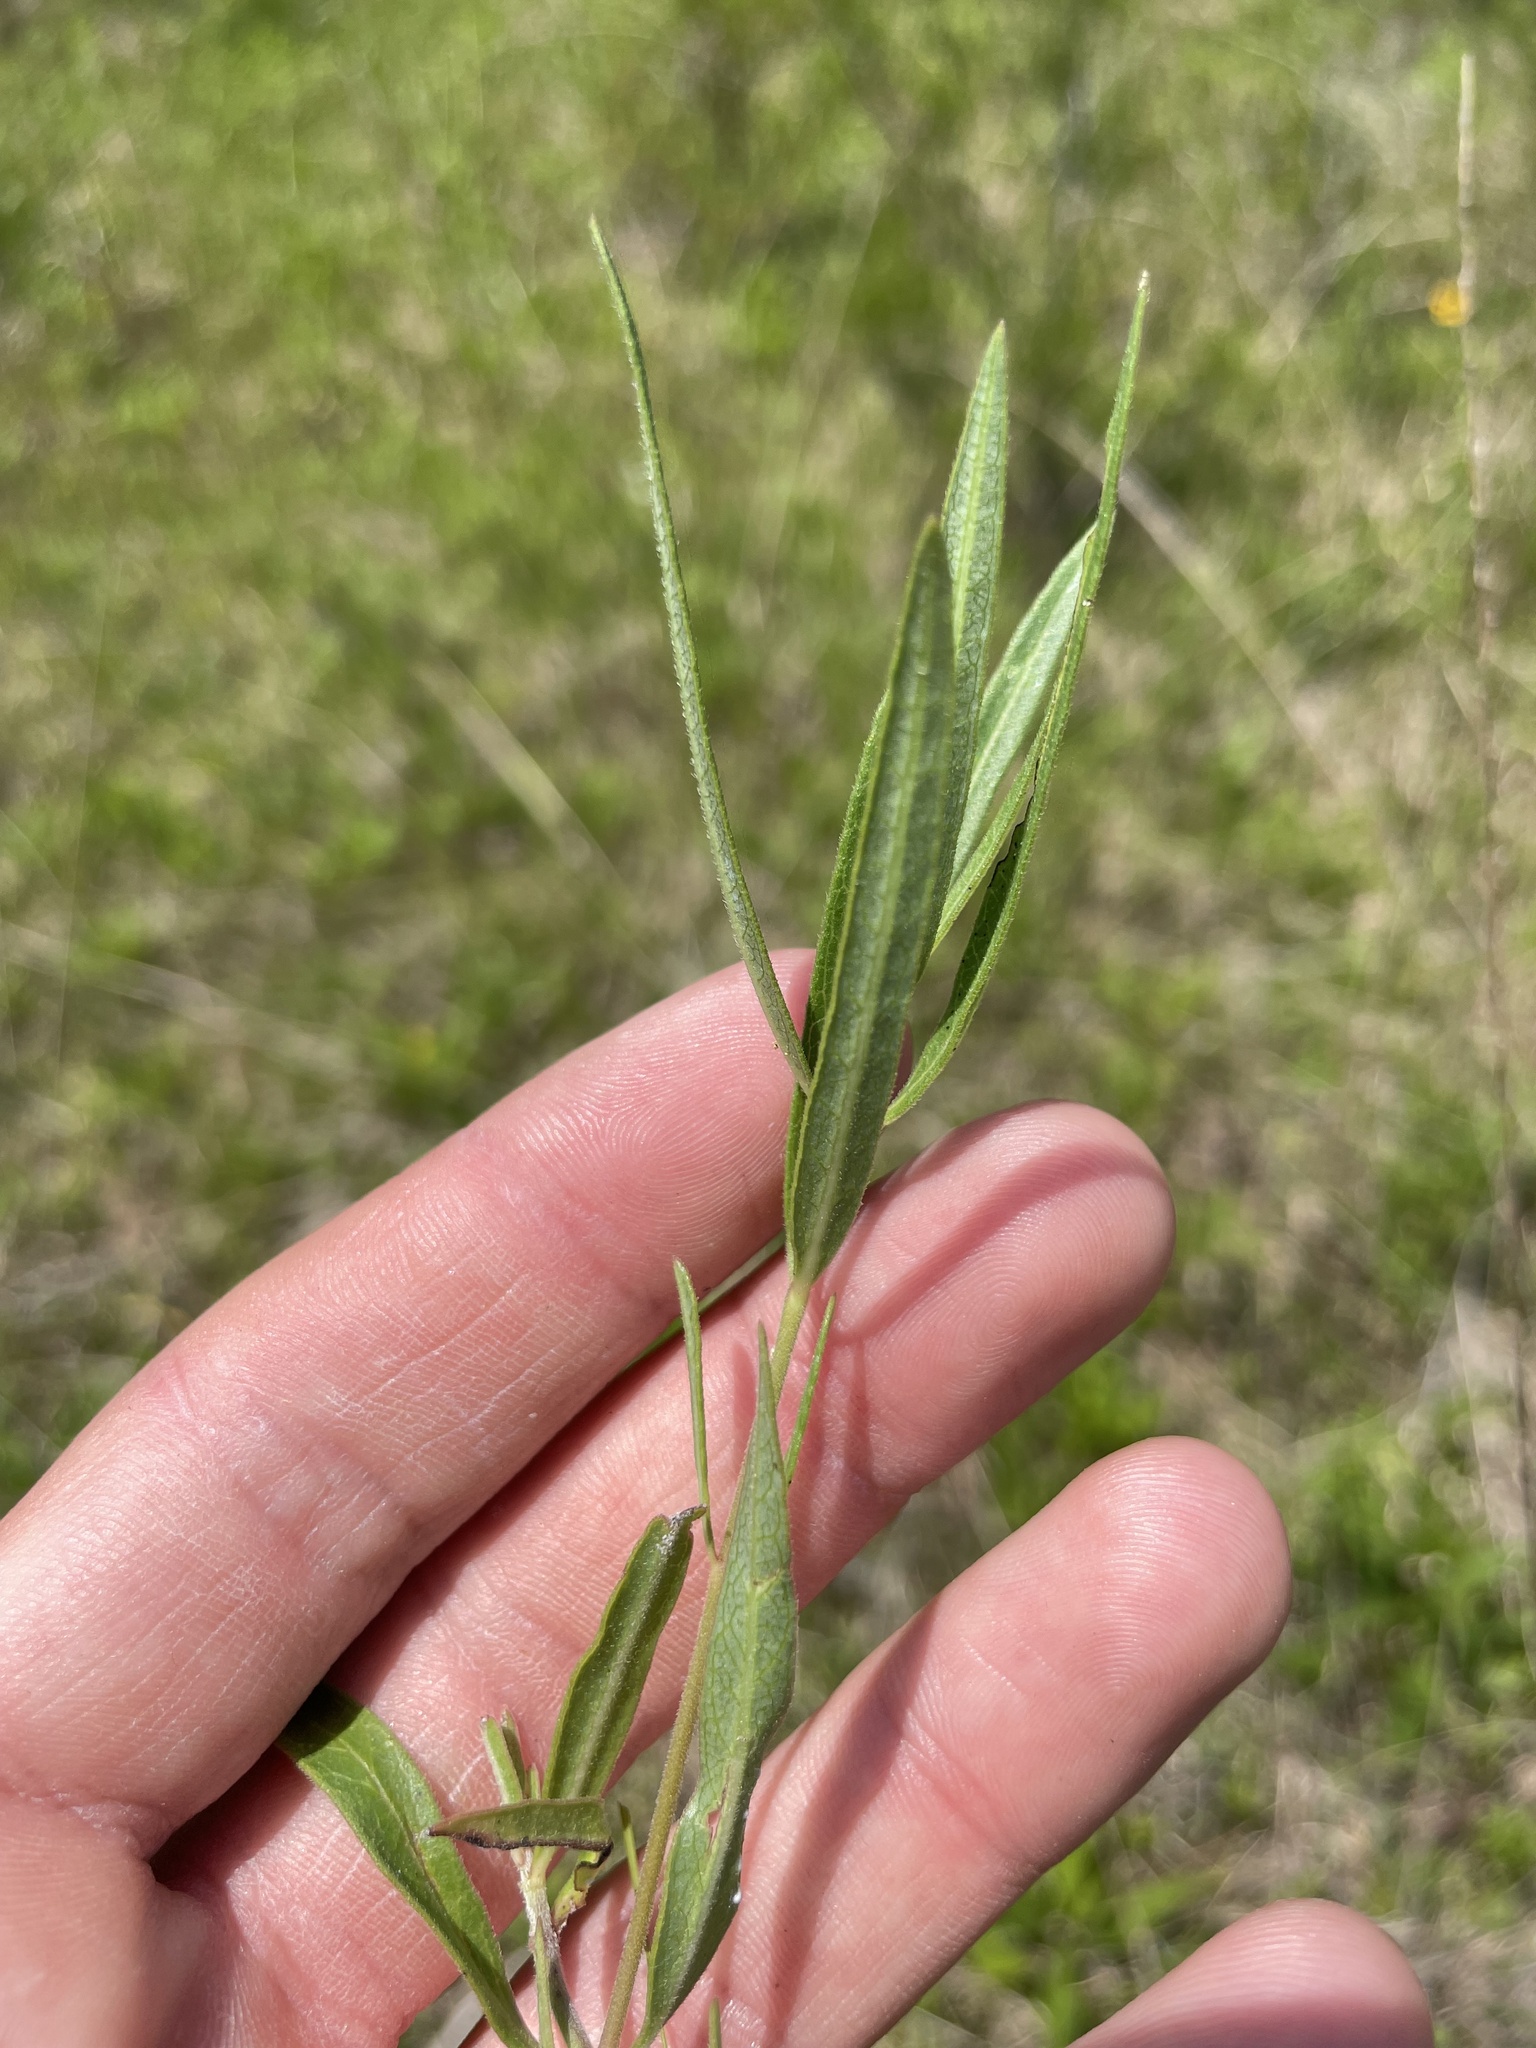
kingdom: Plantae
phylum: Tracheophyta
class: Magnoliopsida
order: Gentianales
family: Apocynaceae
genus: Asclepias
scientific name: Asclepias viridiflora
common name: Green comet milkweed
